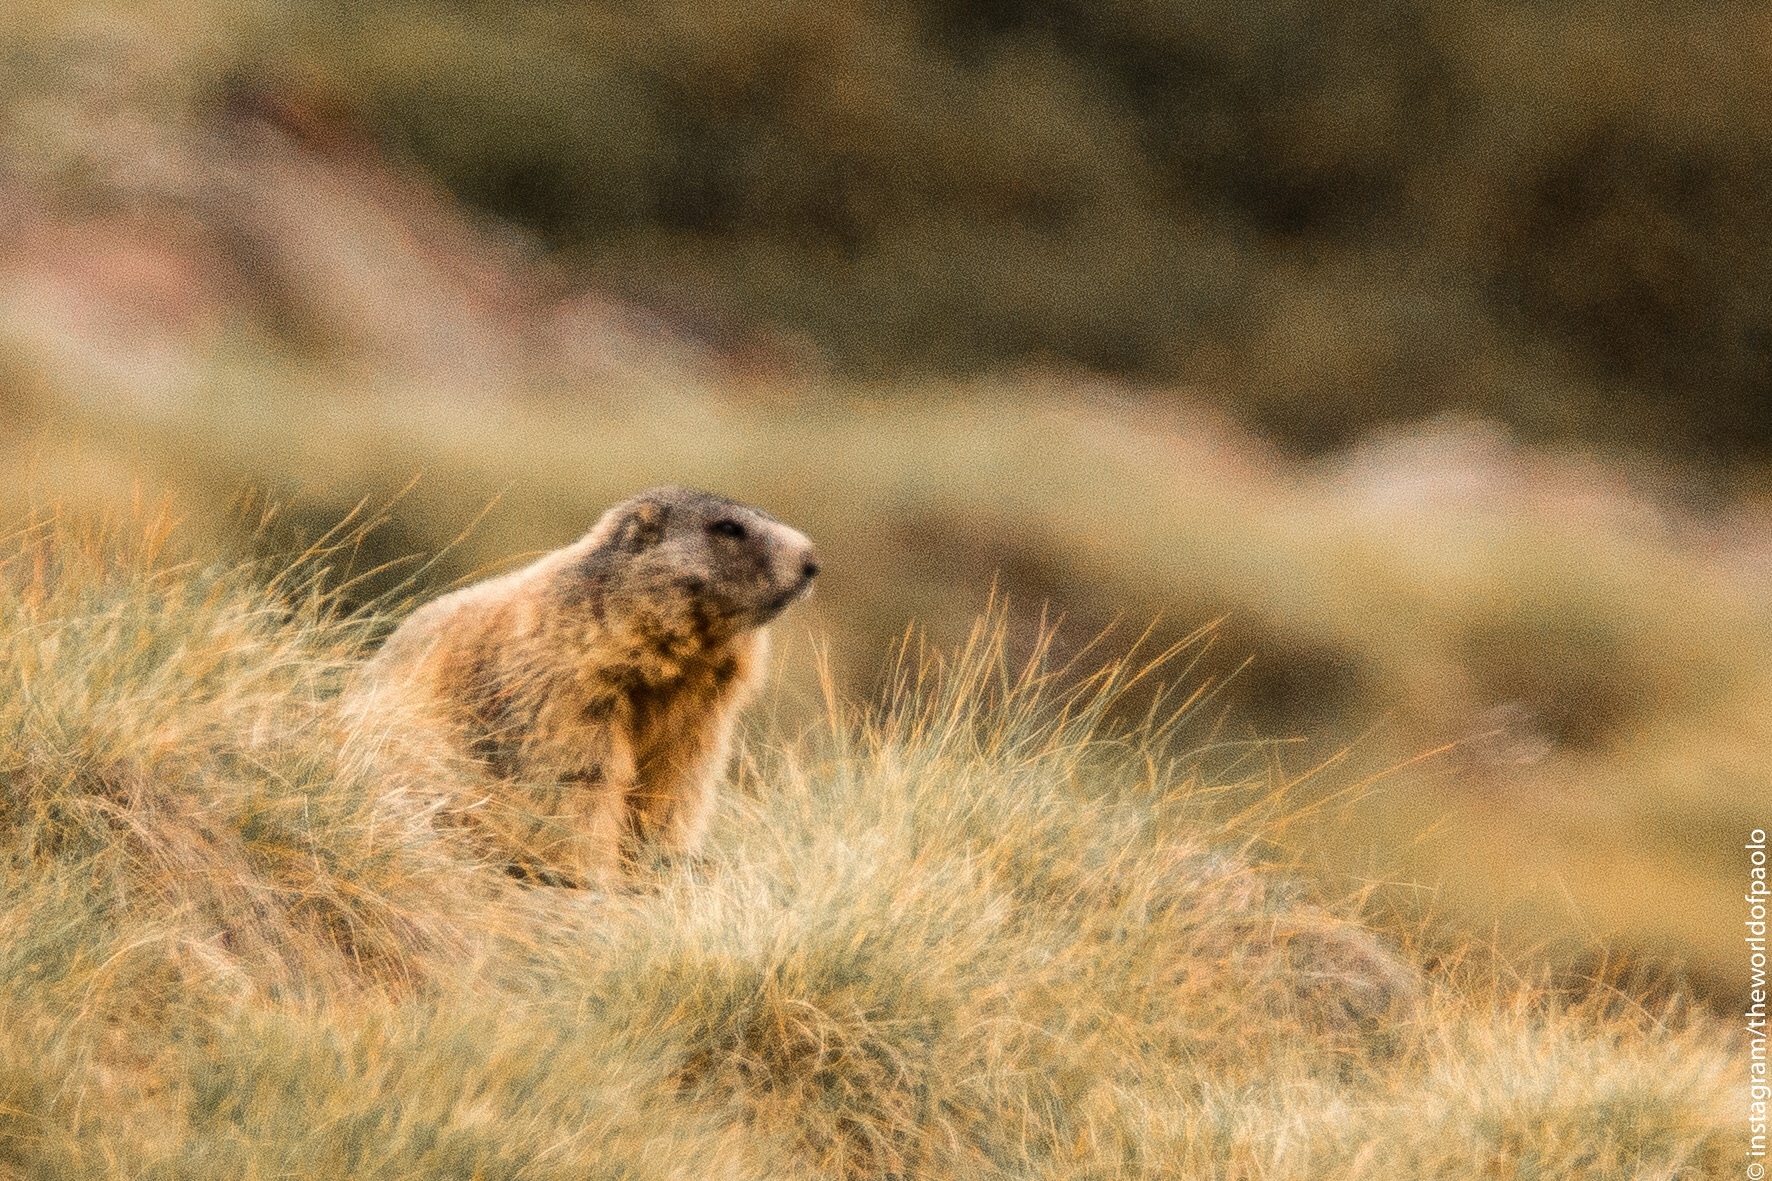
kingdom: Animalia
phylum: Chordata
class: Mammalia
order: Rodentia
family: Sciuridae
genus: Marmota
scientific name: Marmota marmota
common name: Alpine marmot
